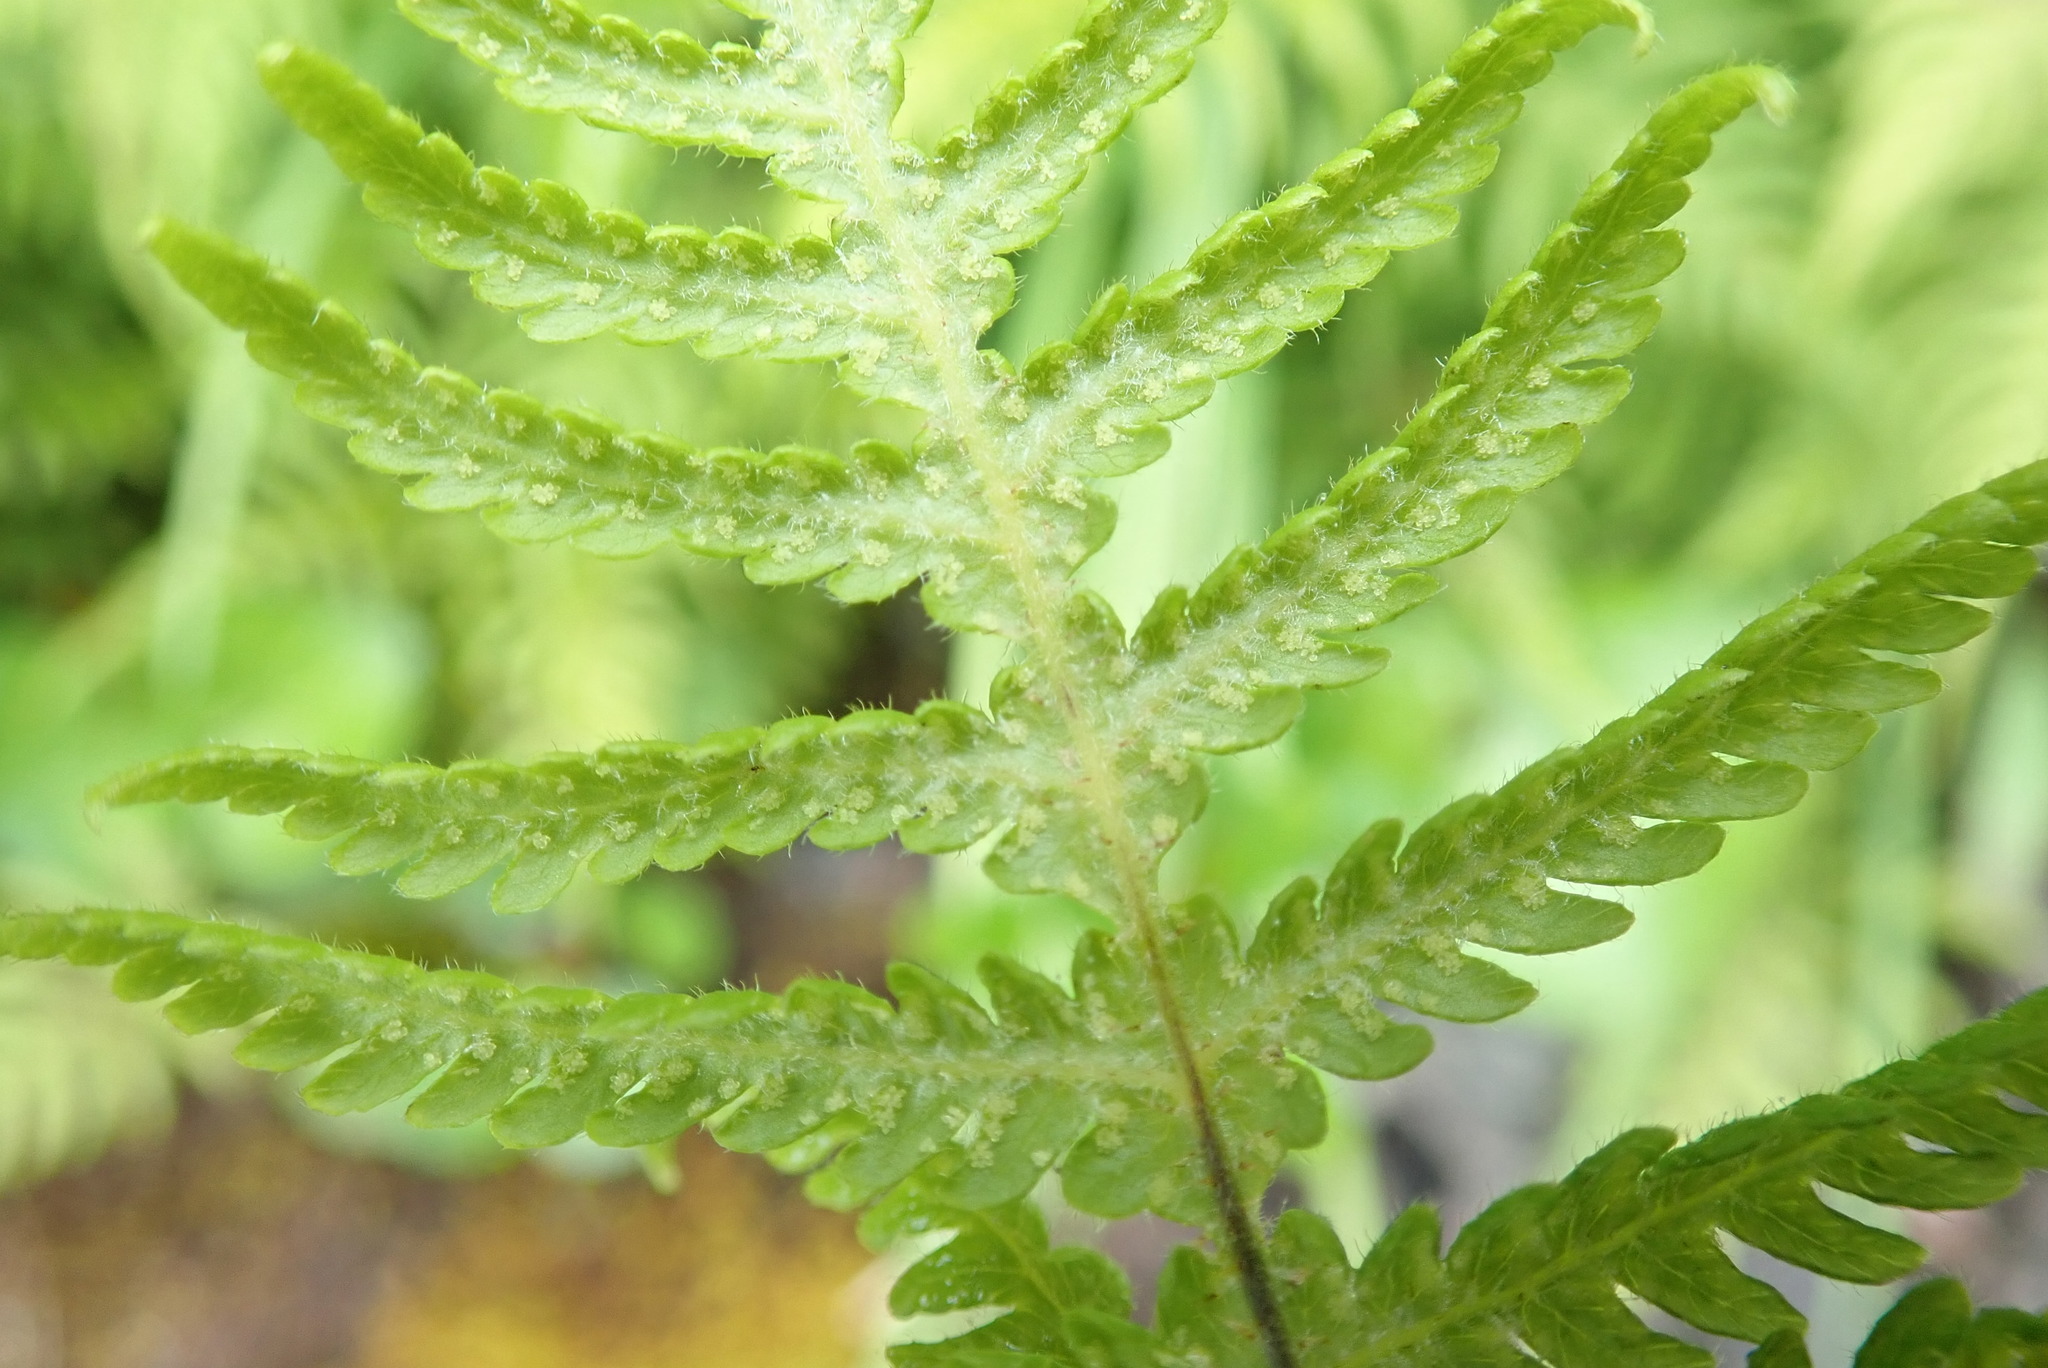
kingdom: Plantae
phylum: Tracheophyta
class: Polypodiopsida
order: Polypodiales
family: Thelypteridaceae
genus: Phegopteris
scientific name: Phegopteris connectilis
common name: Beech fern
